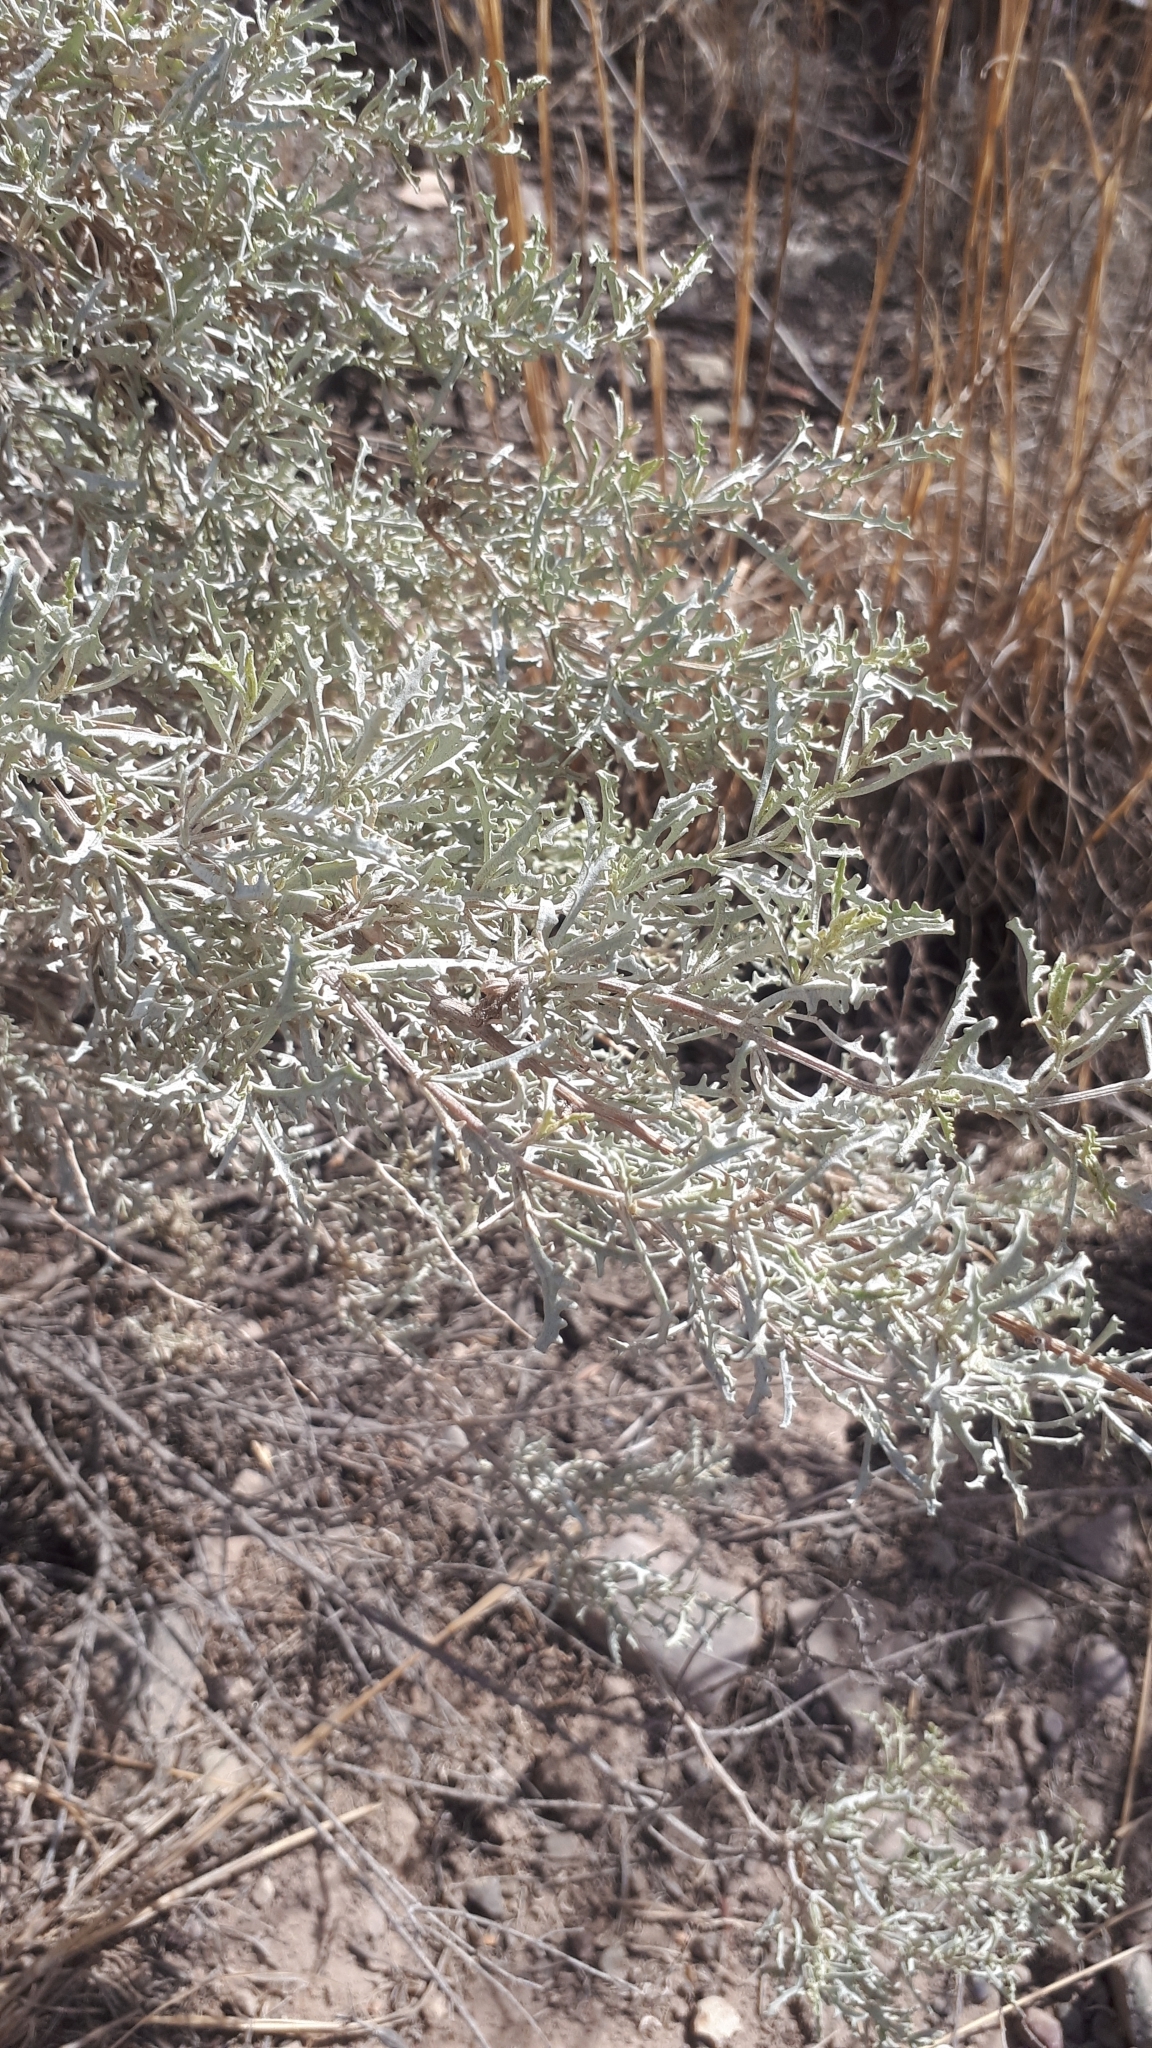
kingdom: Plantae
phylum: Tracheophyta
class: Magnoliopsida
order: Caryophyllales
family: Amaranthaceae
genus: Atriplex
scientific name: Atriplex lampa
